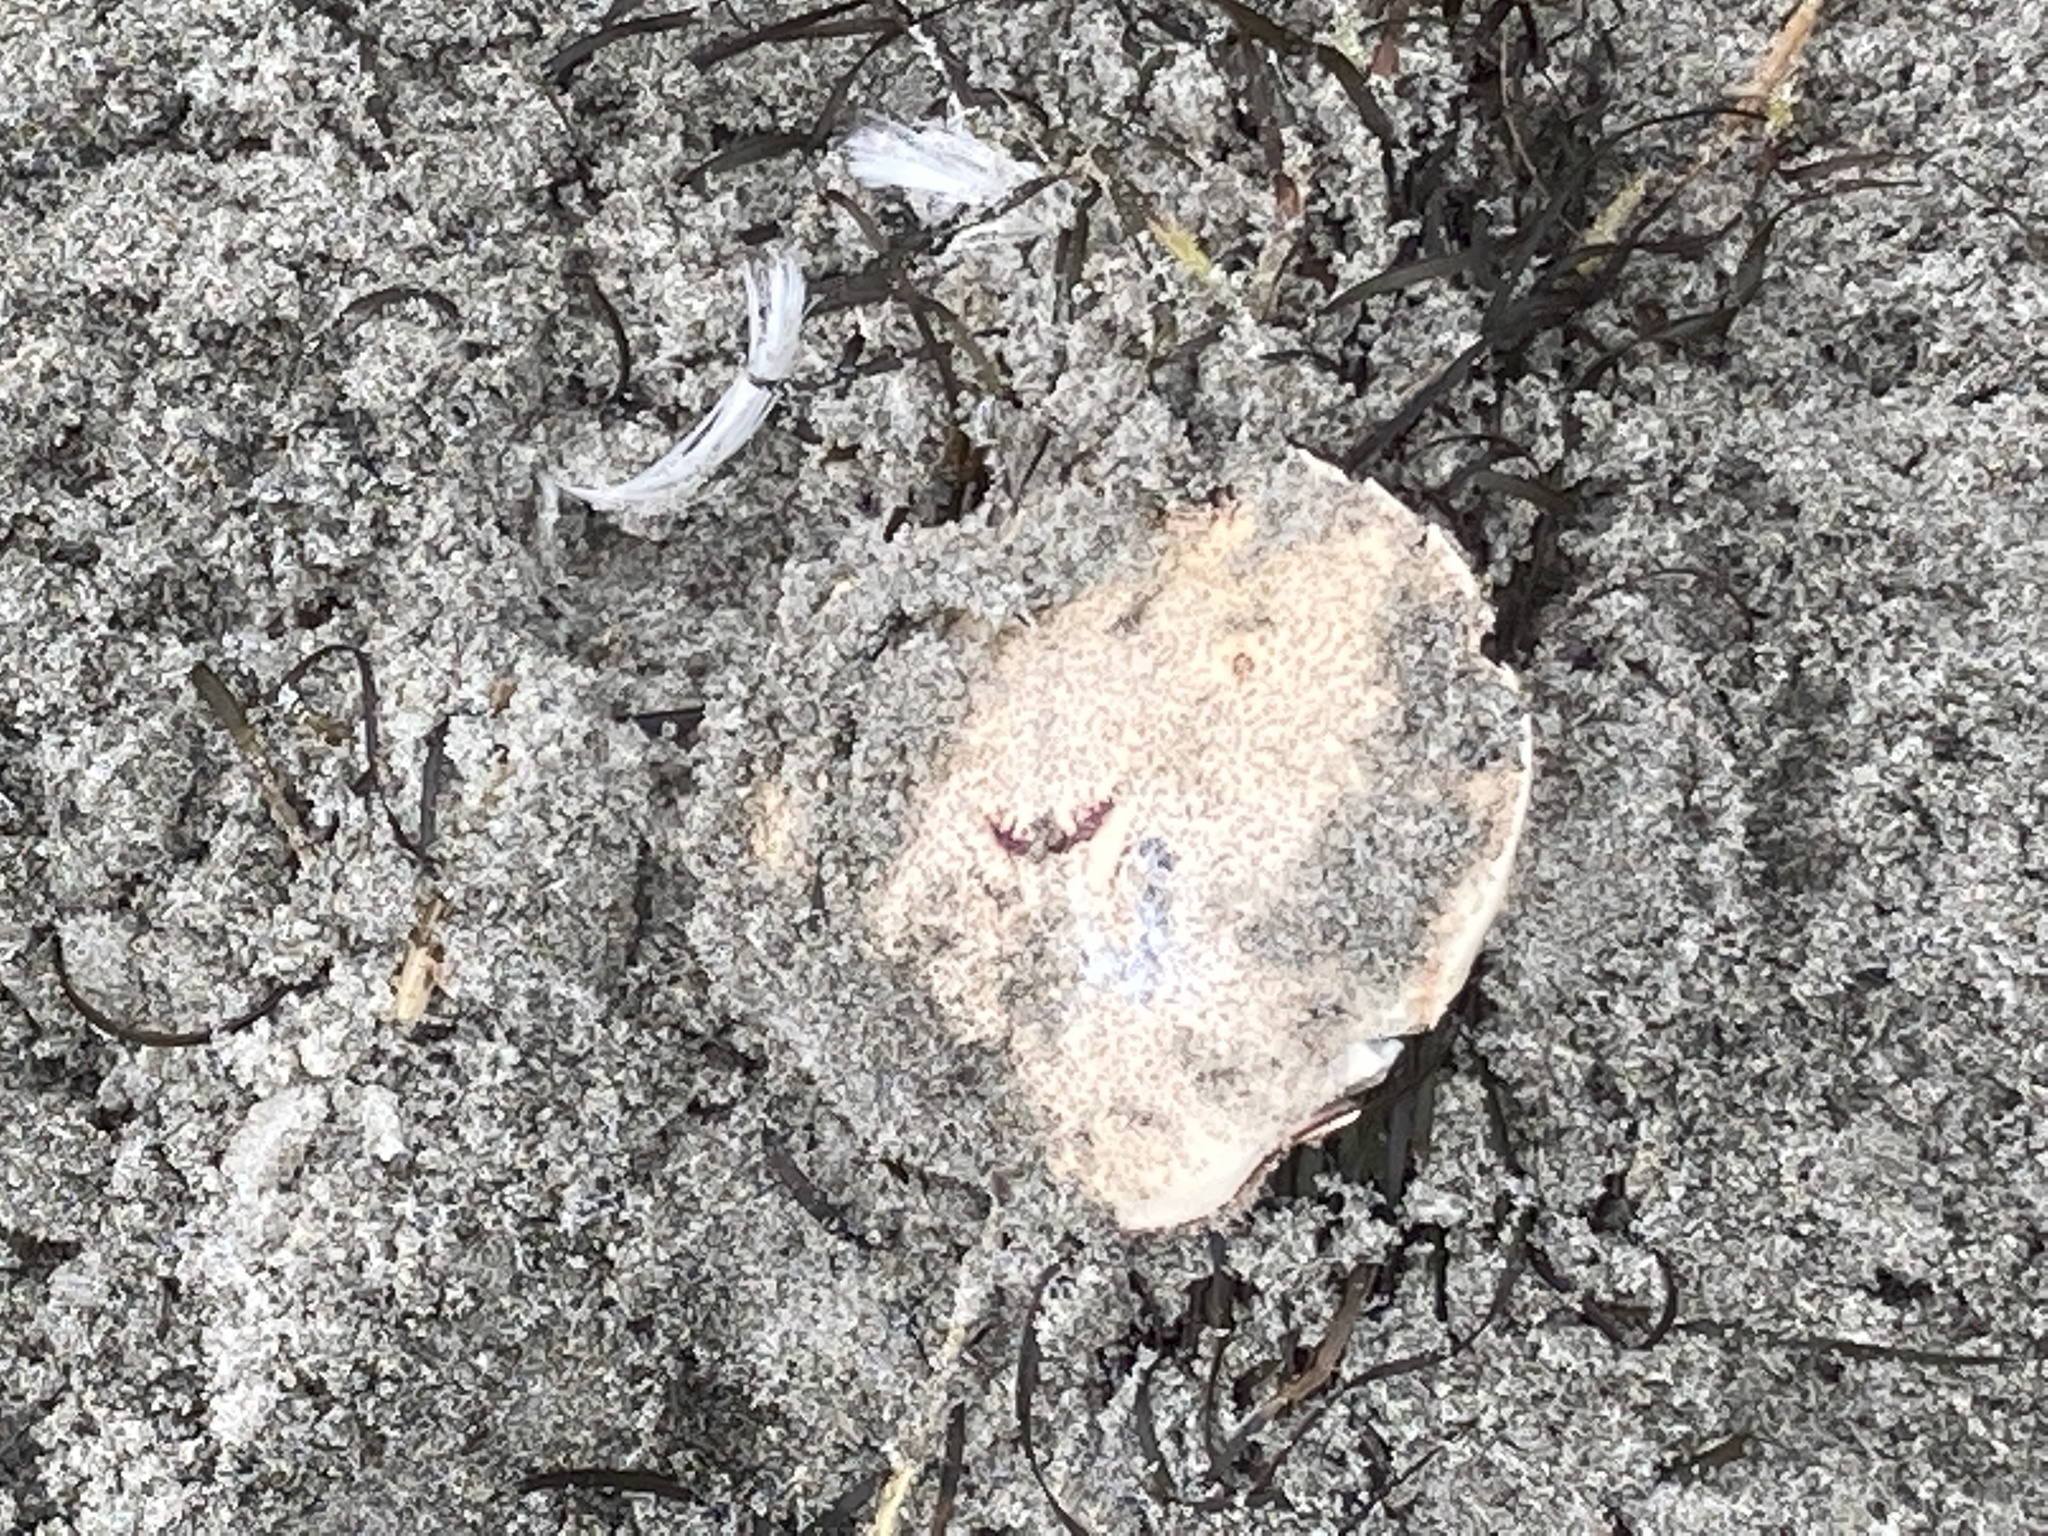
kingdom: Animalia
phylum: Arthropoda
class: Malacostraca
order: Decapoda
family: Ovalipidae
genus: Ovalipes
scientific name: Ovalipes catharus
